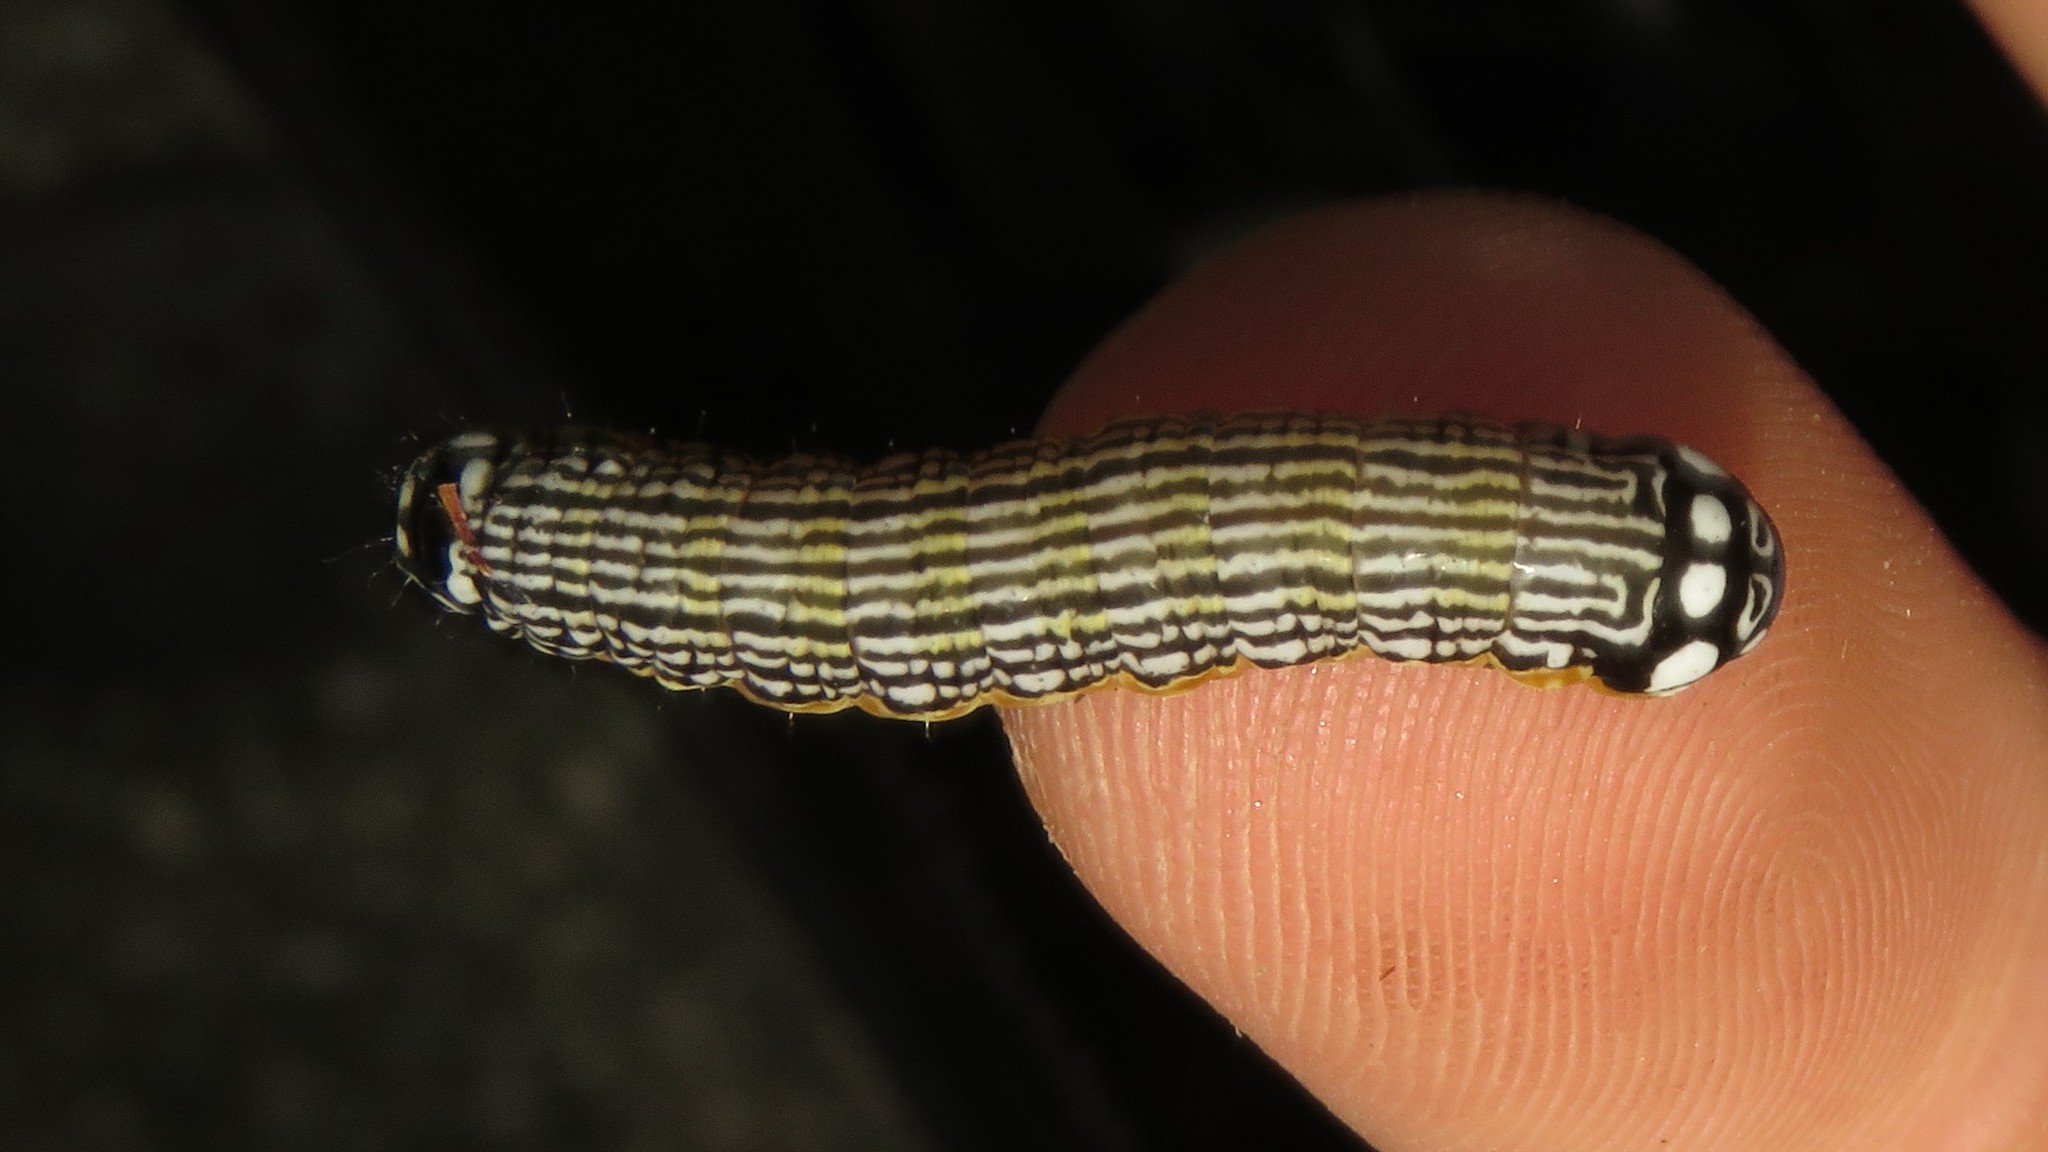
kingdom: Animalia
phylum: Arthropoda
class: Insecta
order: Lepidoptera
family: Noctuidae
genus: Phosphila
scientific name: Phosphila turbulenta
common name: Turbulent phosphila moth
